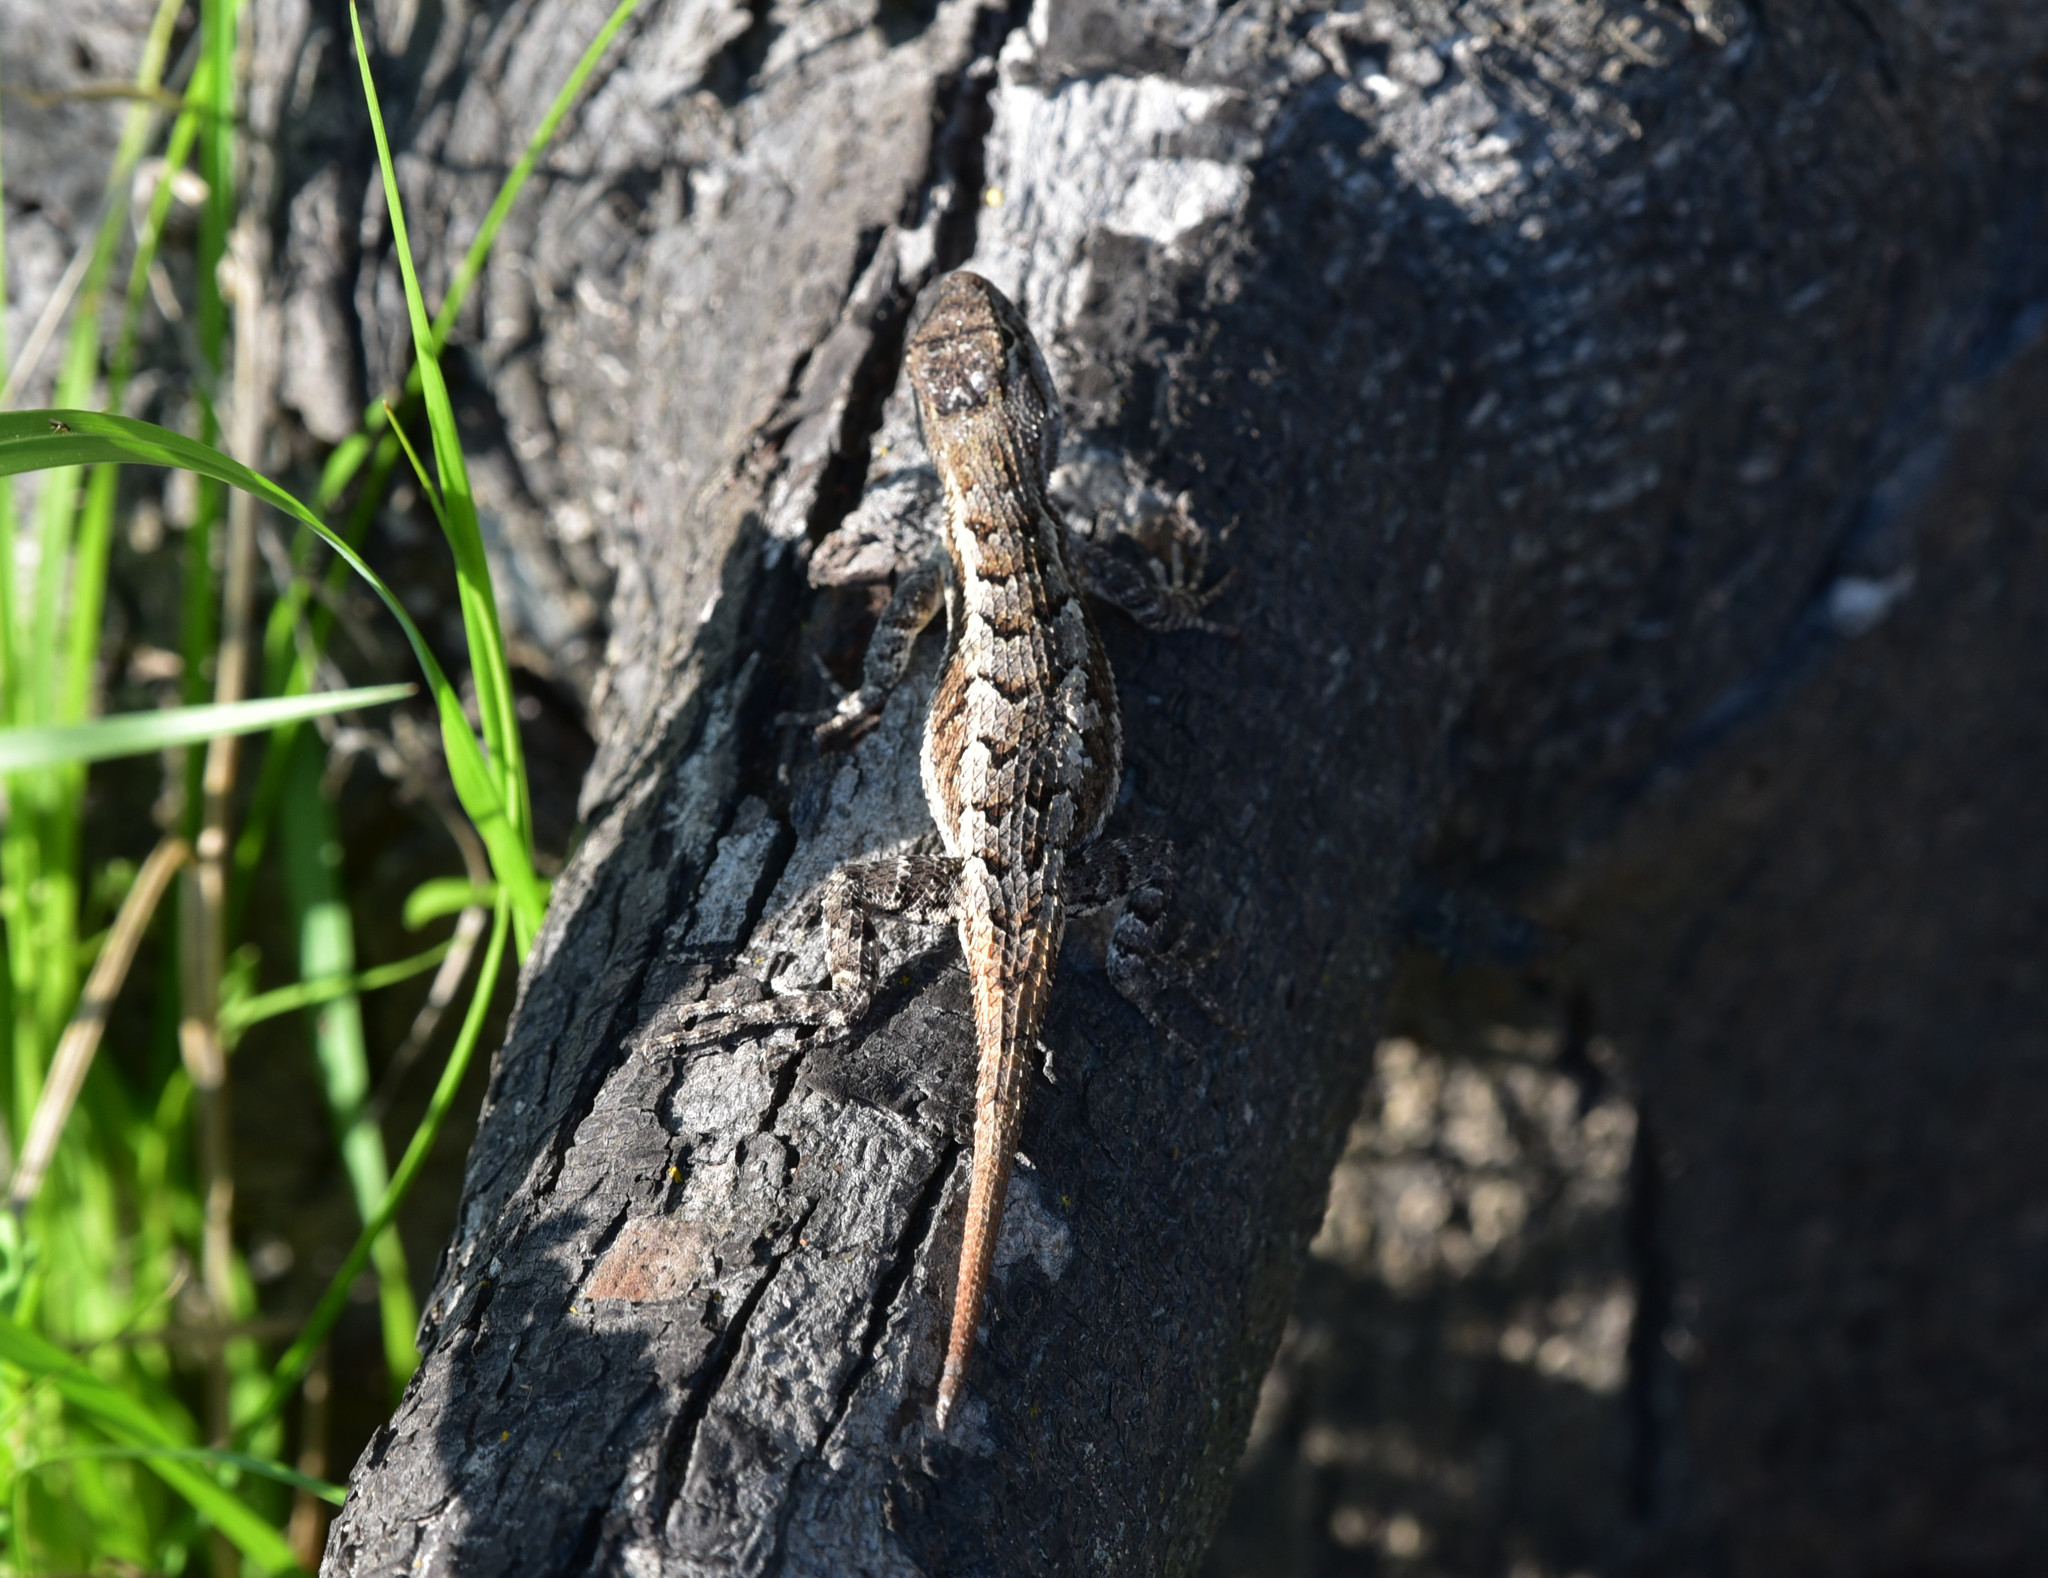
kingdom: Animalia
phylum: Chordata
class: Squamata
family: Phrynosomatidae
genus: Sceloporus
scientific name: Sceloporus consobrinus
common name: Southern prairie lizard
